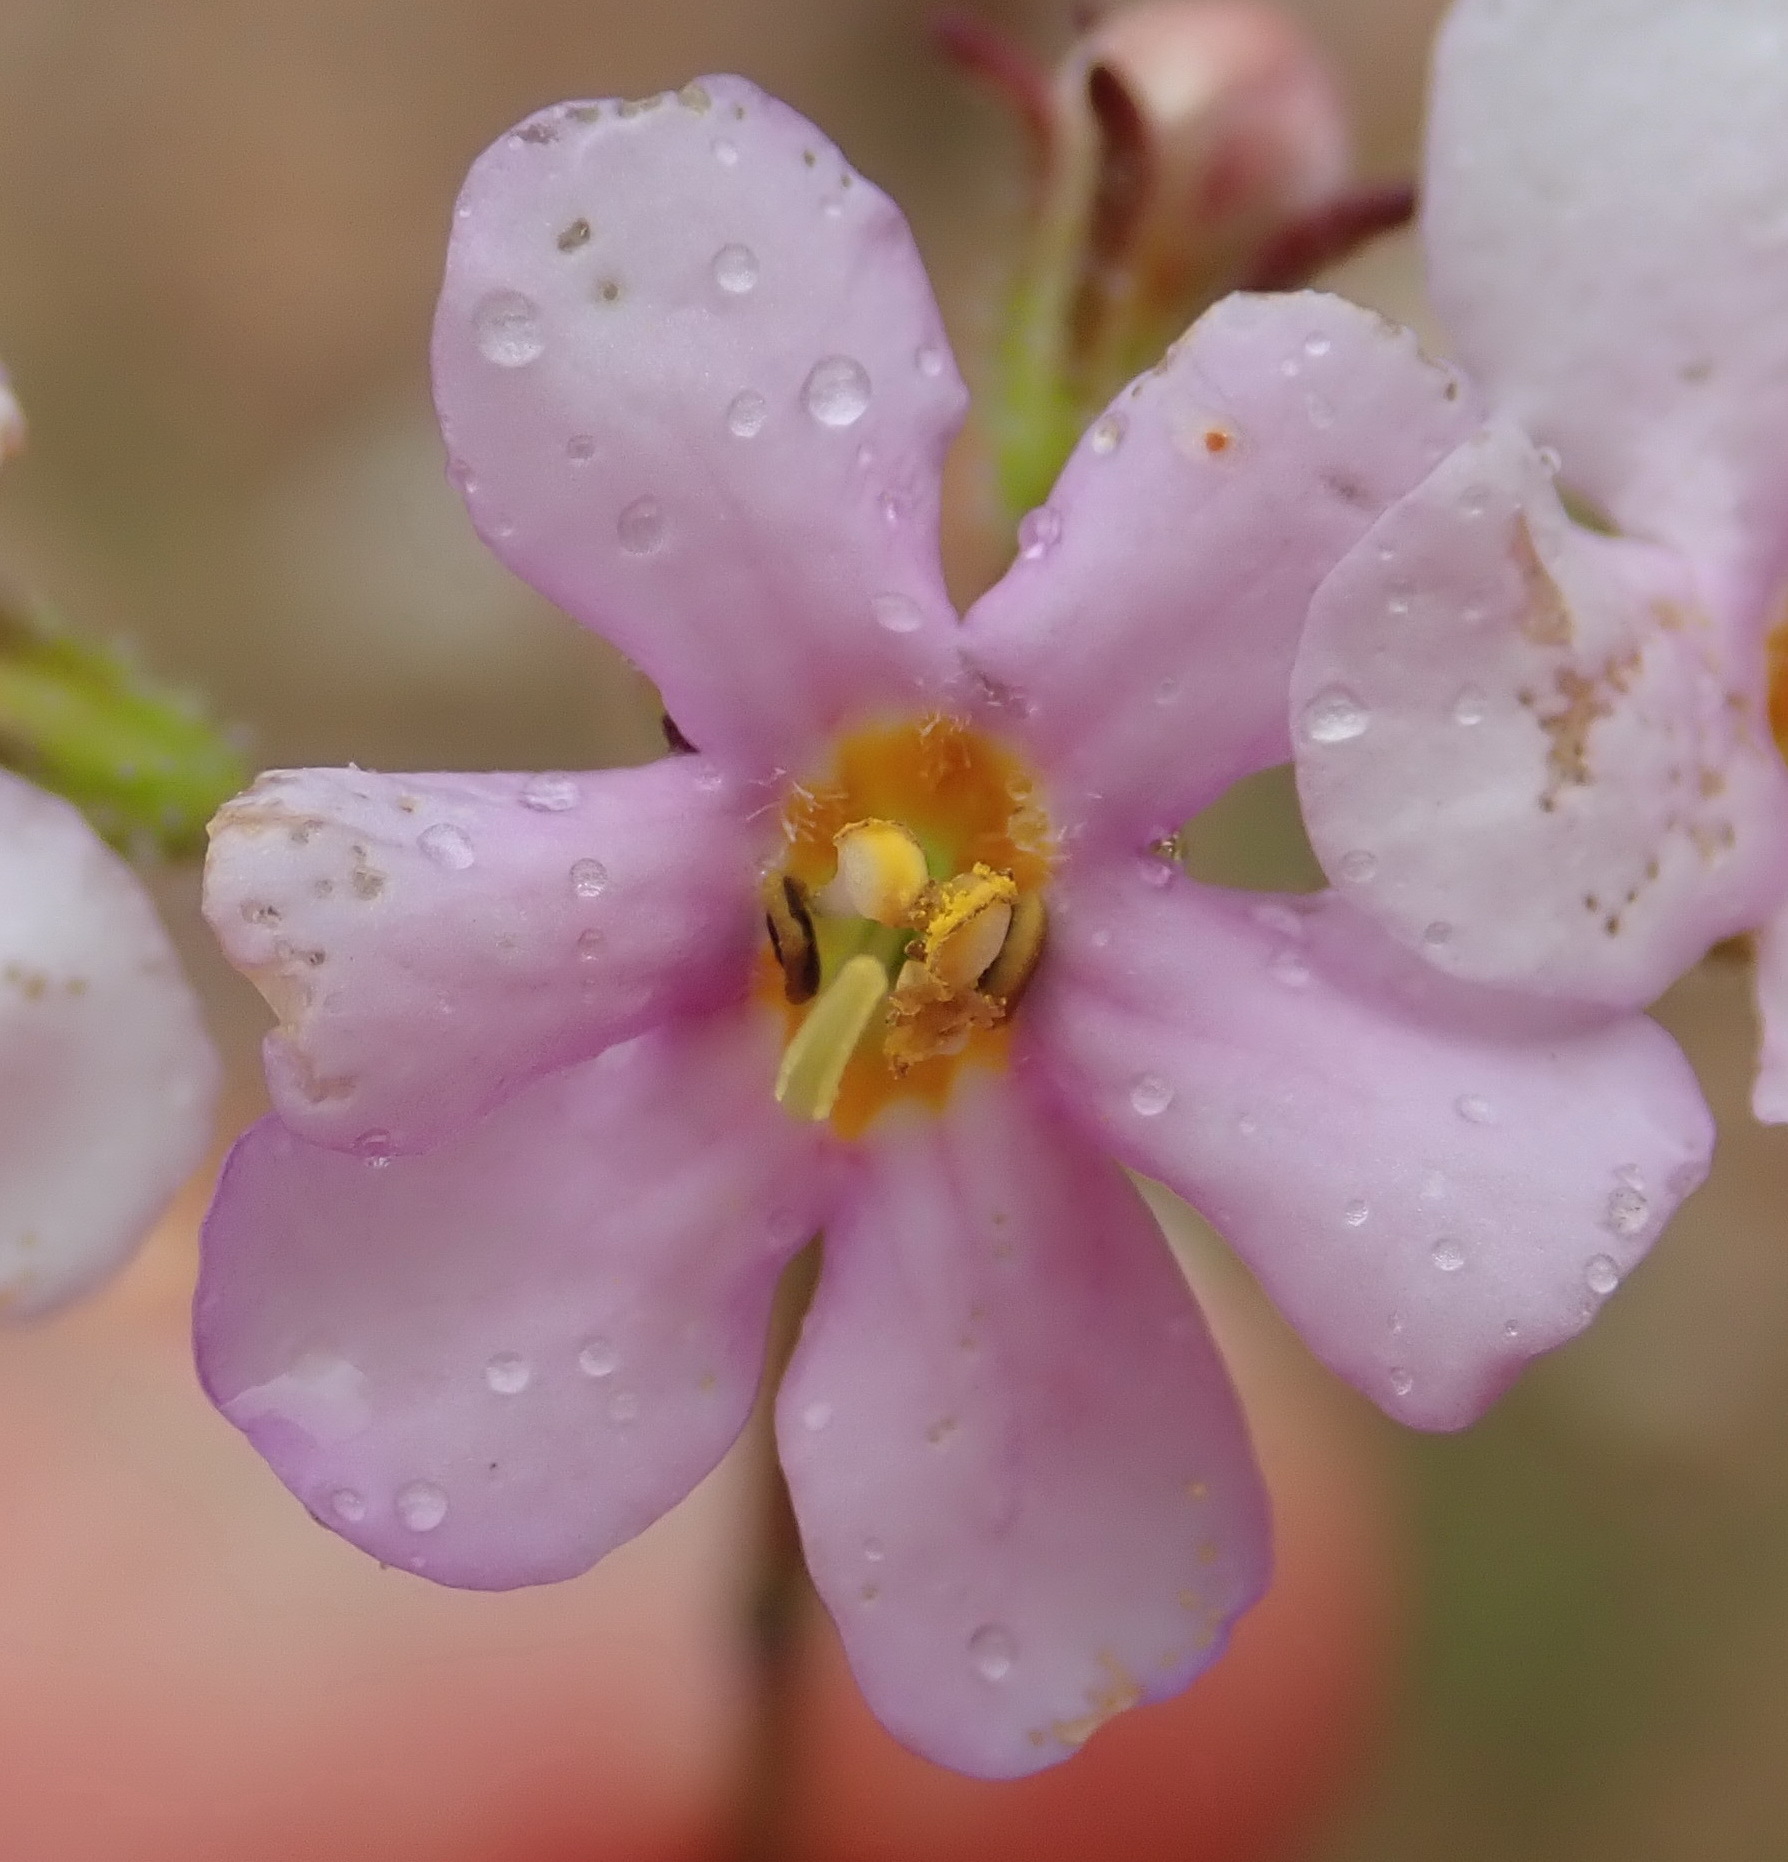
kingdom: Plantae
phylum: Tracheophyta
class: Magnoliopsida
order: Lamiales
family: Scrophulariaceae
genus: Chaenostoma
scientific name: Chaenostoma affine
